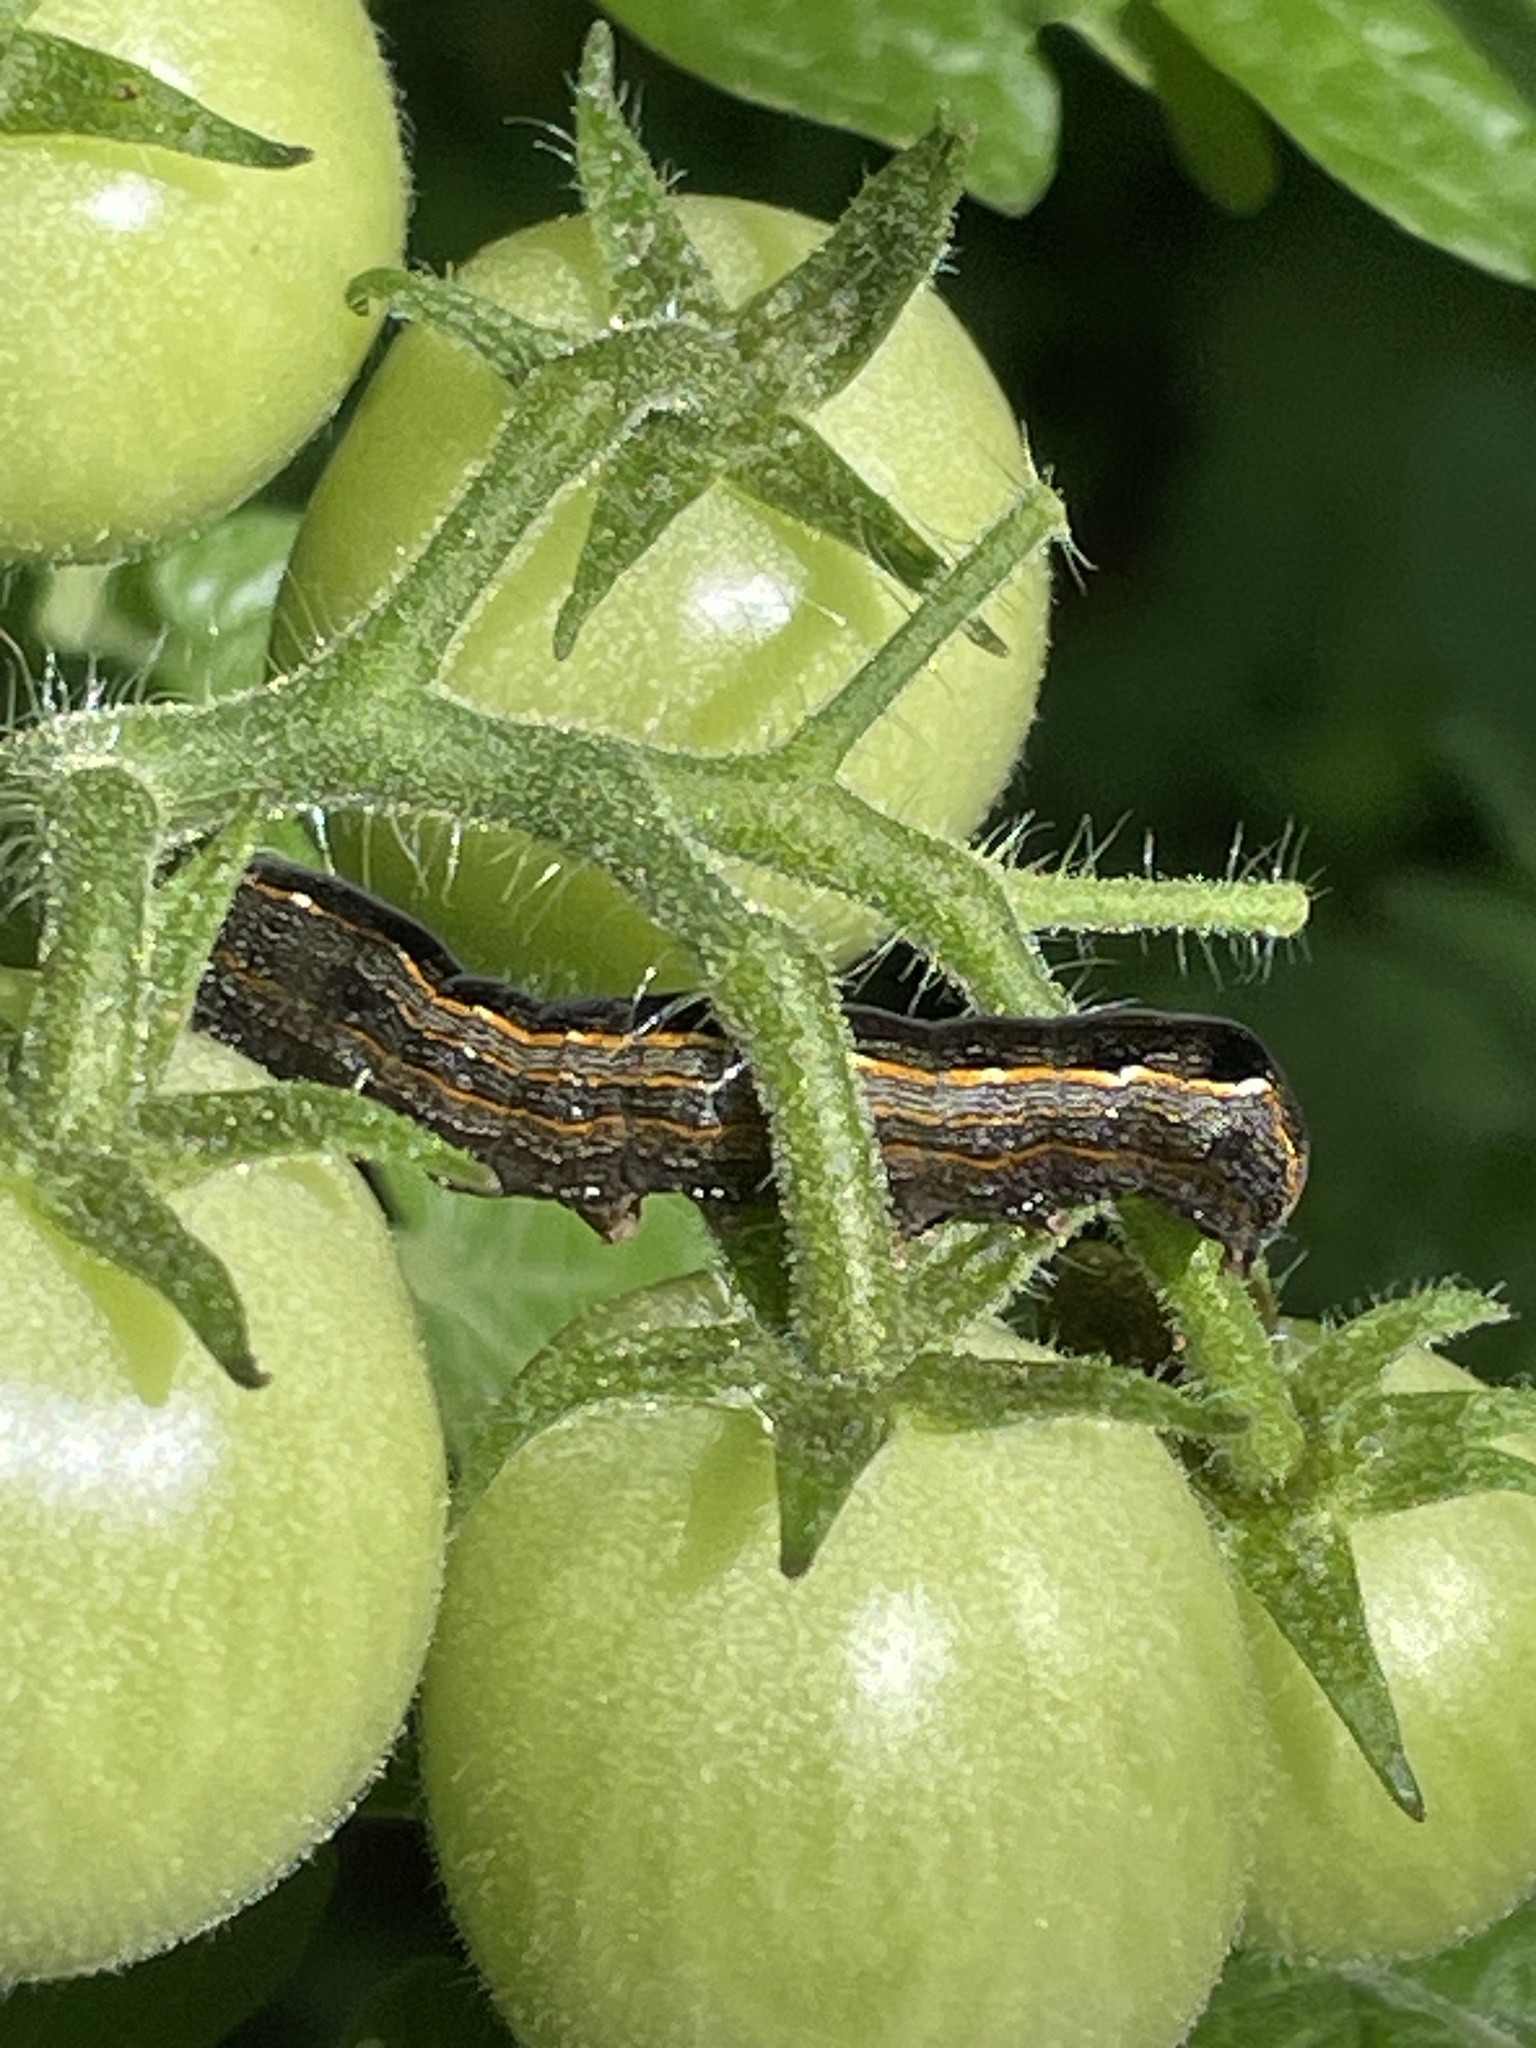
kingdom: Animalia
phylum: Arthropoda
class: Insecta
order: Lepidoptera
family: Noctuidae
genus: Spodoptera
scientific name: Spodoptera ornithogalli
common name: Yellow-striped armyworm
